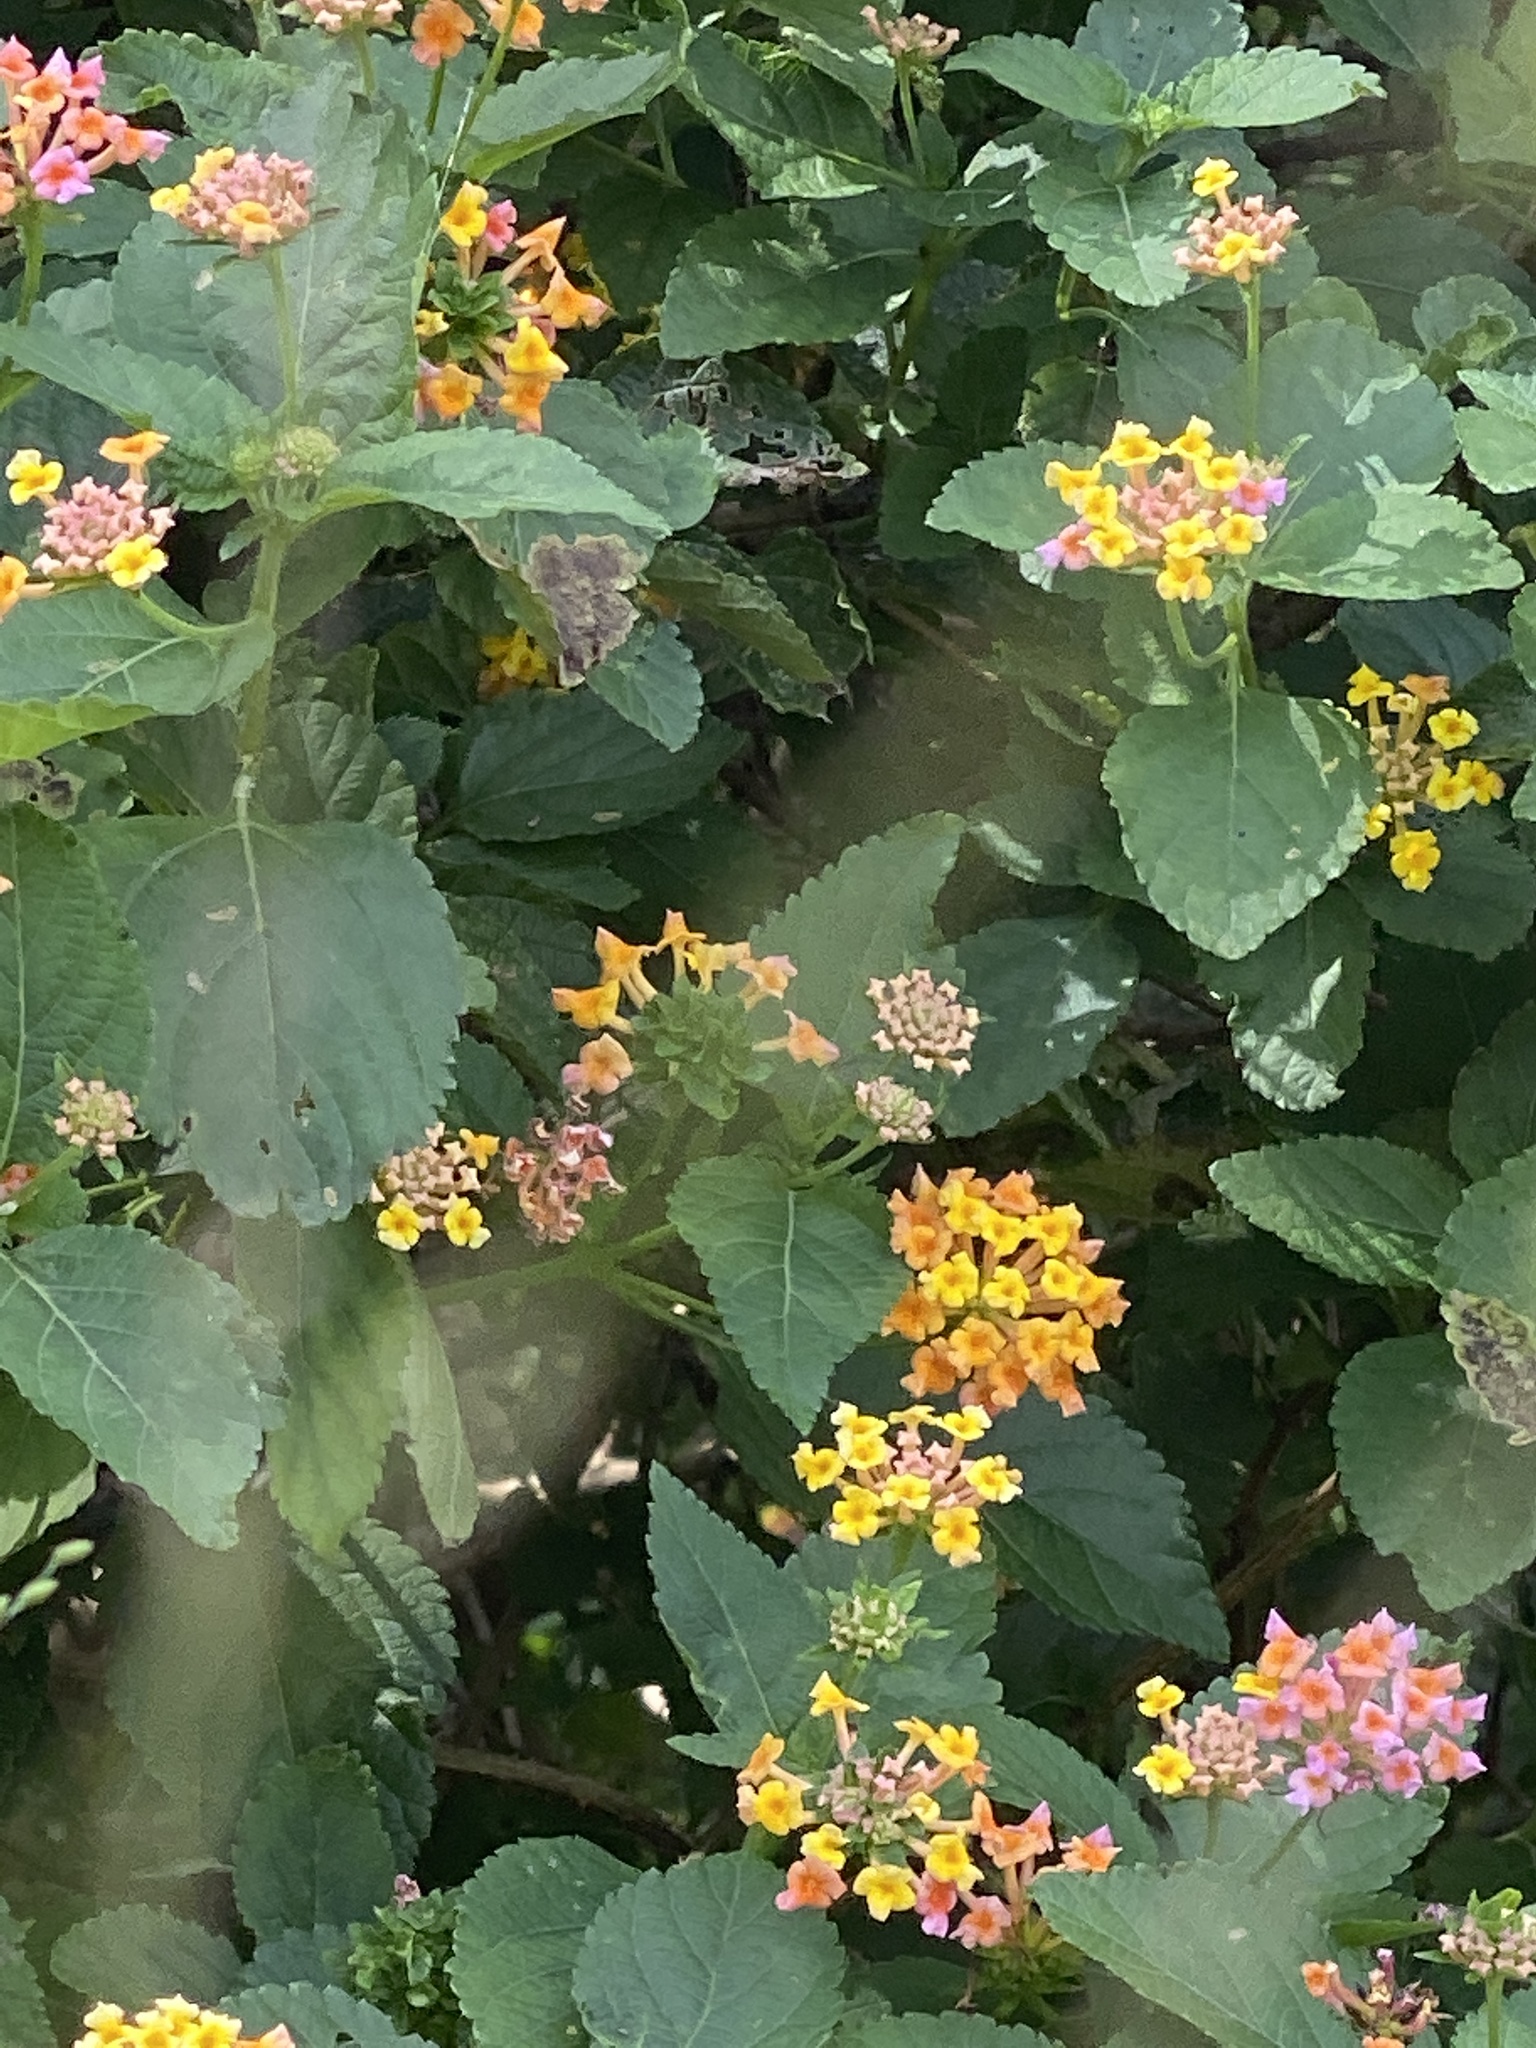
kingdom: Plantae
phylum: Tracheophyta
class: Magnoliopsida
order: Lamiales
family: Verbenaceae
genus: Lantana
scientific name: Lantana camara
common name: Lantana
